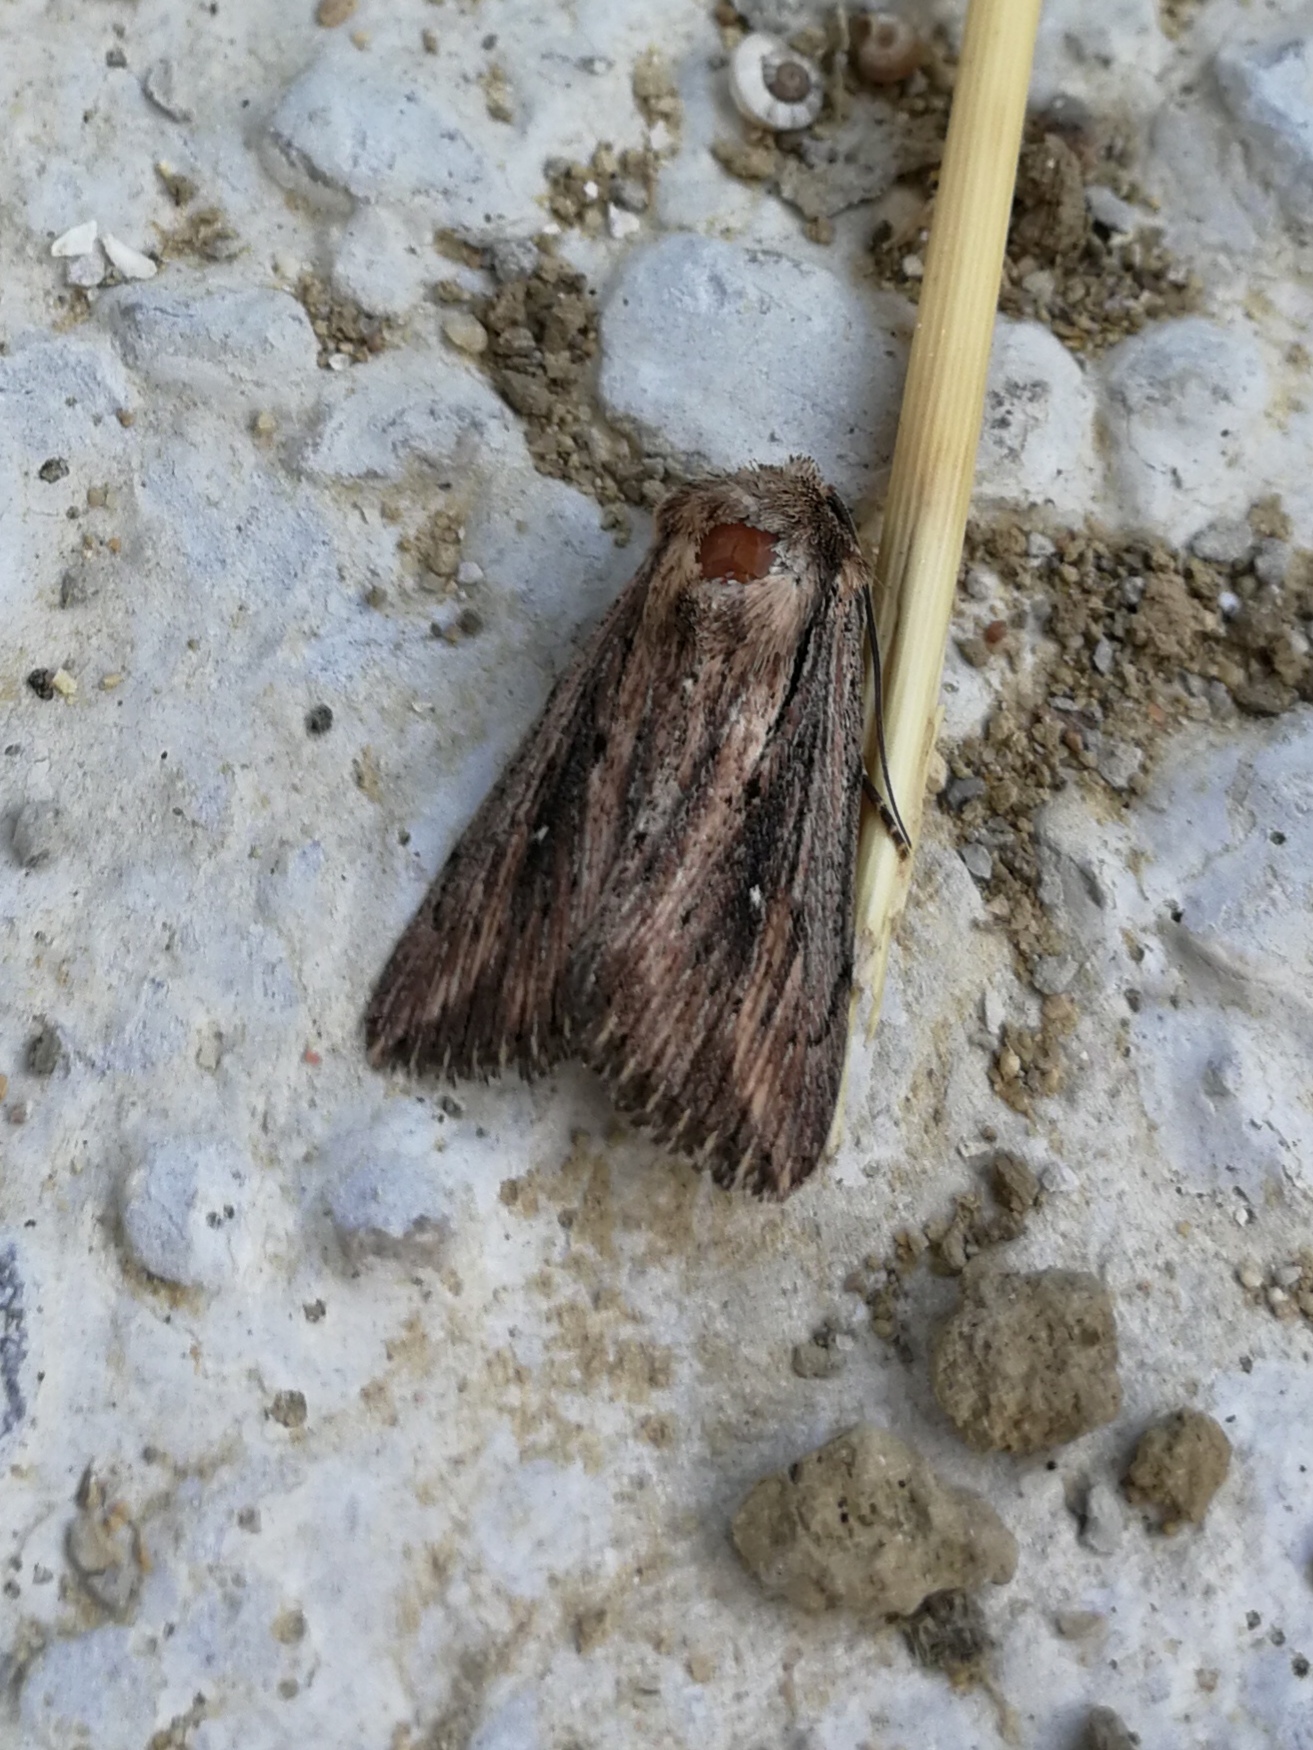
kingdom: Animalia
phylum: Arthropoda
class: Insecta
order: Lepidoptera
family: Noctuidae
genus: Leucania
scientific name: Leucania putrescens
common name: Devonshire wainscot
